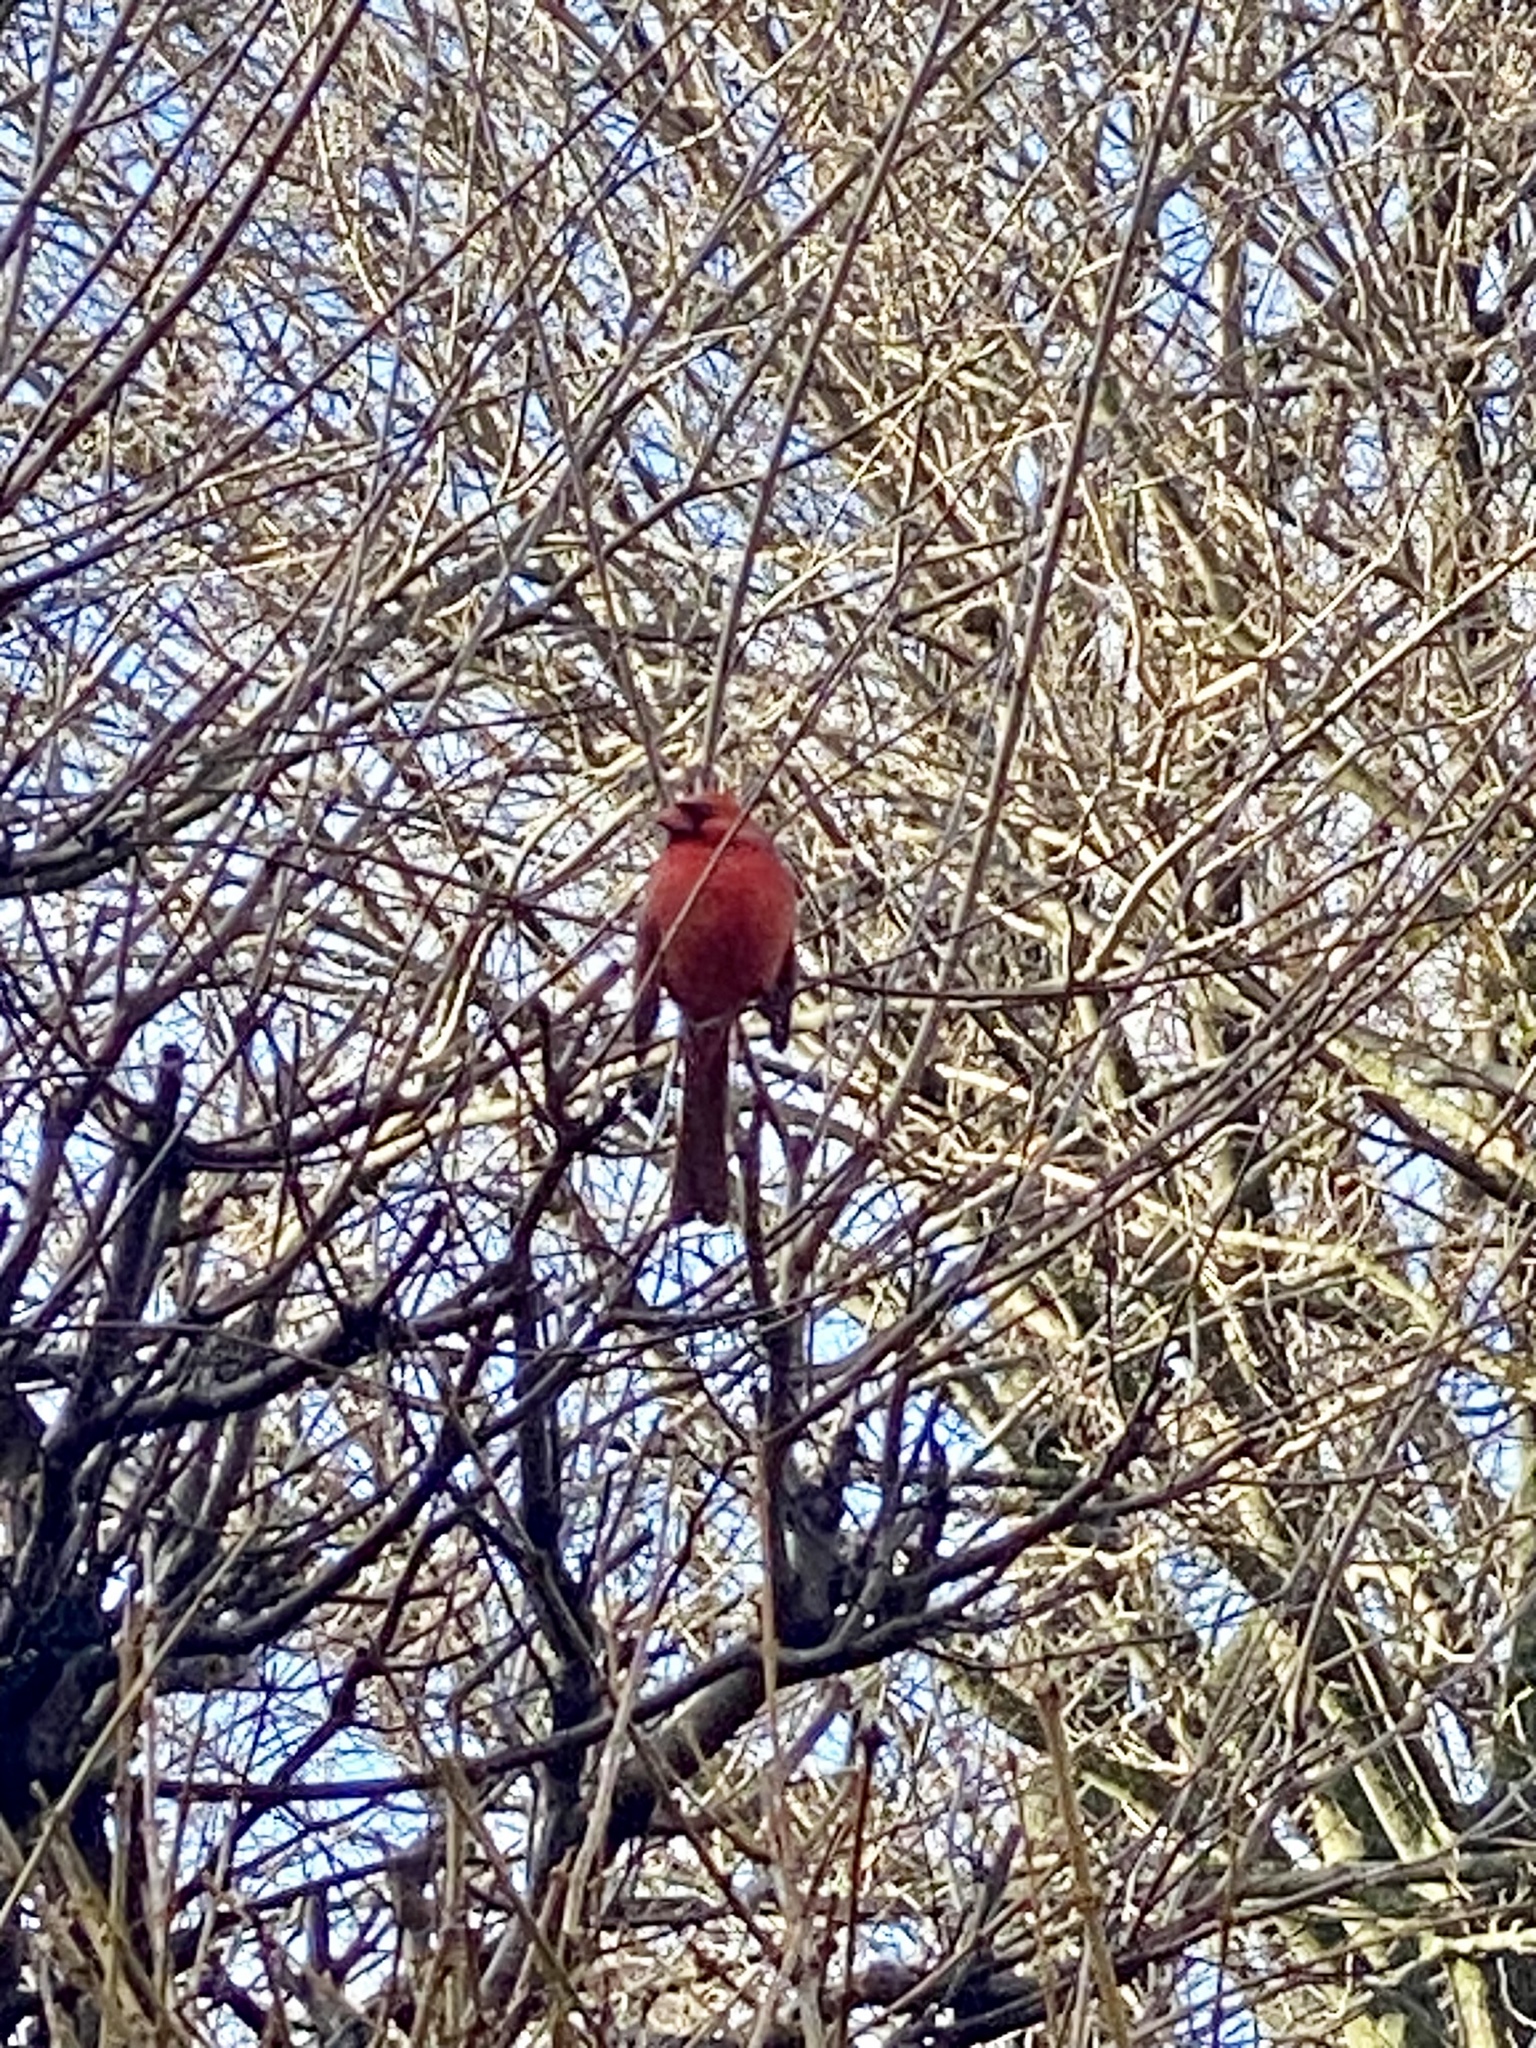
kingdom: Animalia
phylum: Chordata
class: Aves
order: Passeriformes
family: Cardinalidae
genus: Cardinalis
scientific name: Cardinalis cardinalis
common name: Northern cardinal
